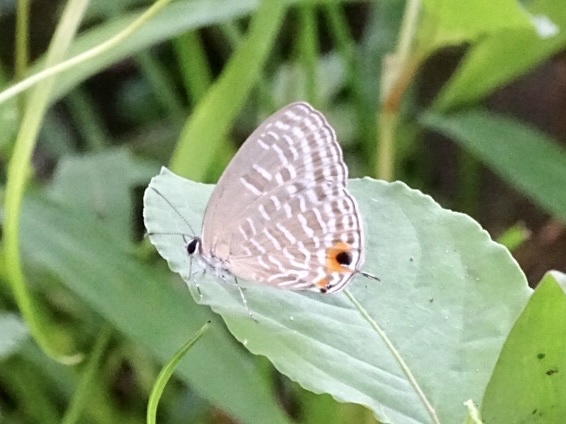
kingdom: Animalia
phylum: Arthropoda
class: Insecta
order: Lepidoptera
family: Lycaenidae
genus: Jamides
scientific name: Jamides alecto
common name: Metallic cerulean
